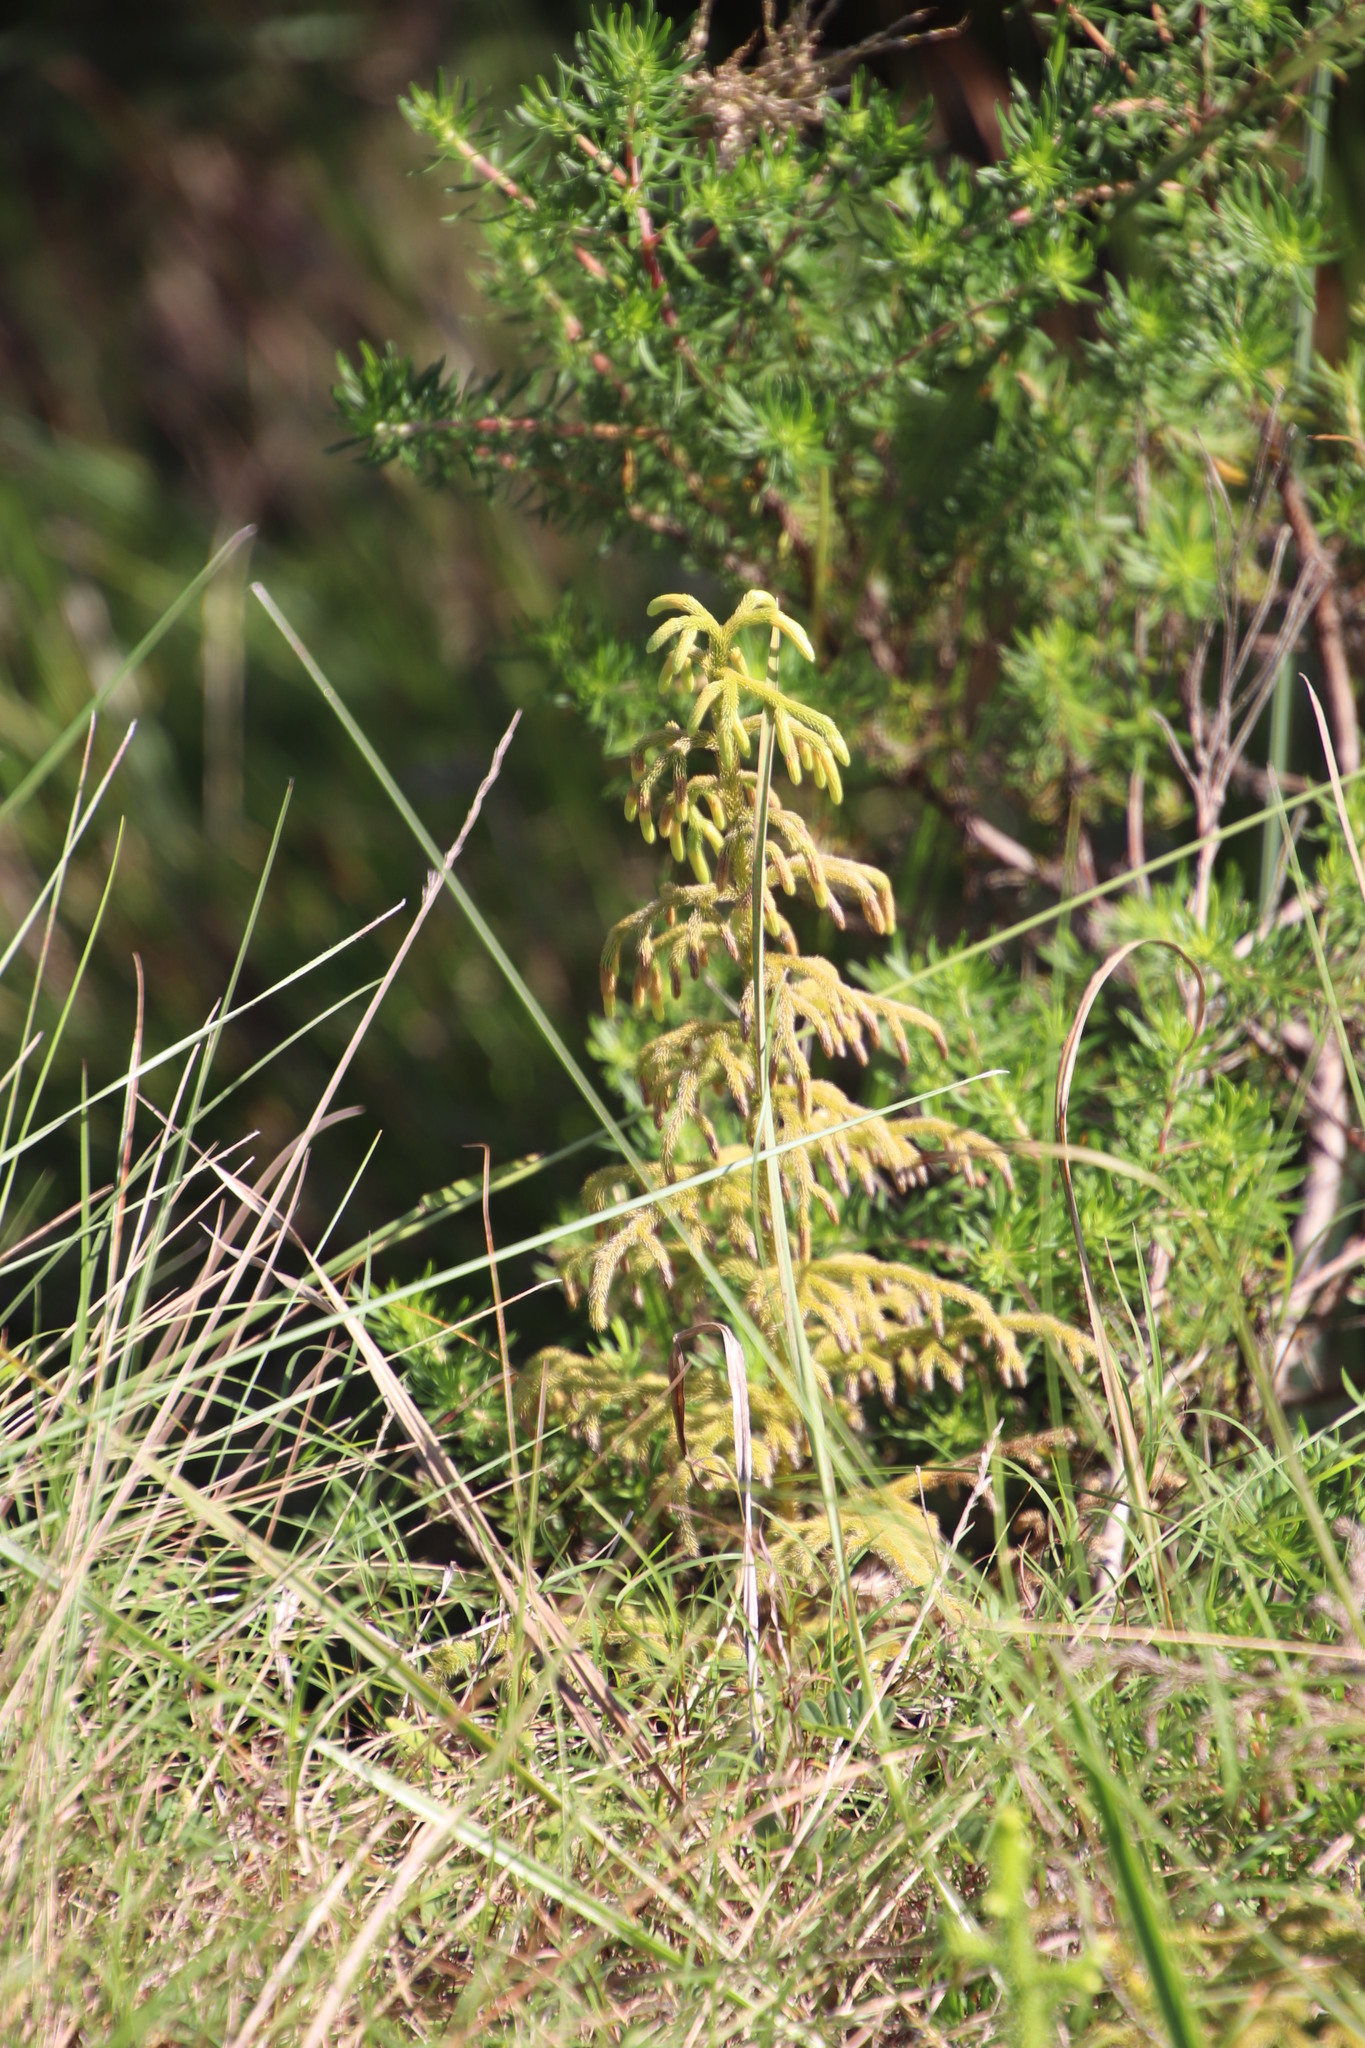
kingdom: Plantae
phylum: Tracheophyta
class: Lycopodiopsida
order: Lycopodiales
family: Lycopodiaceae
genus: Palhinhaea
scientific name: Palhinhaea cernua
